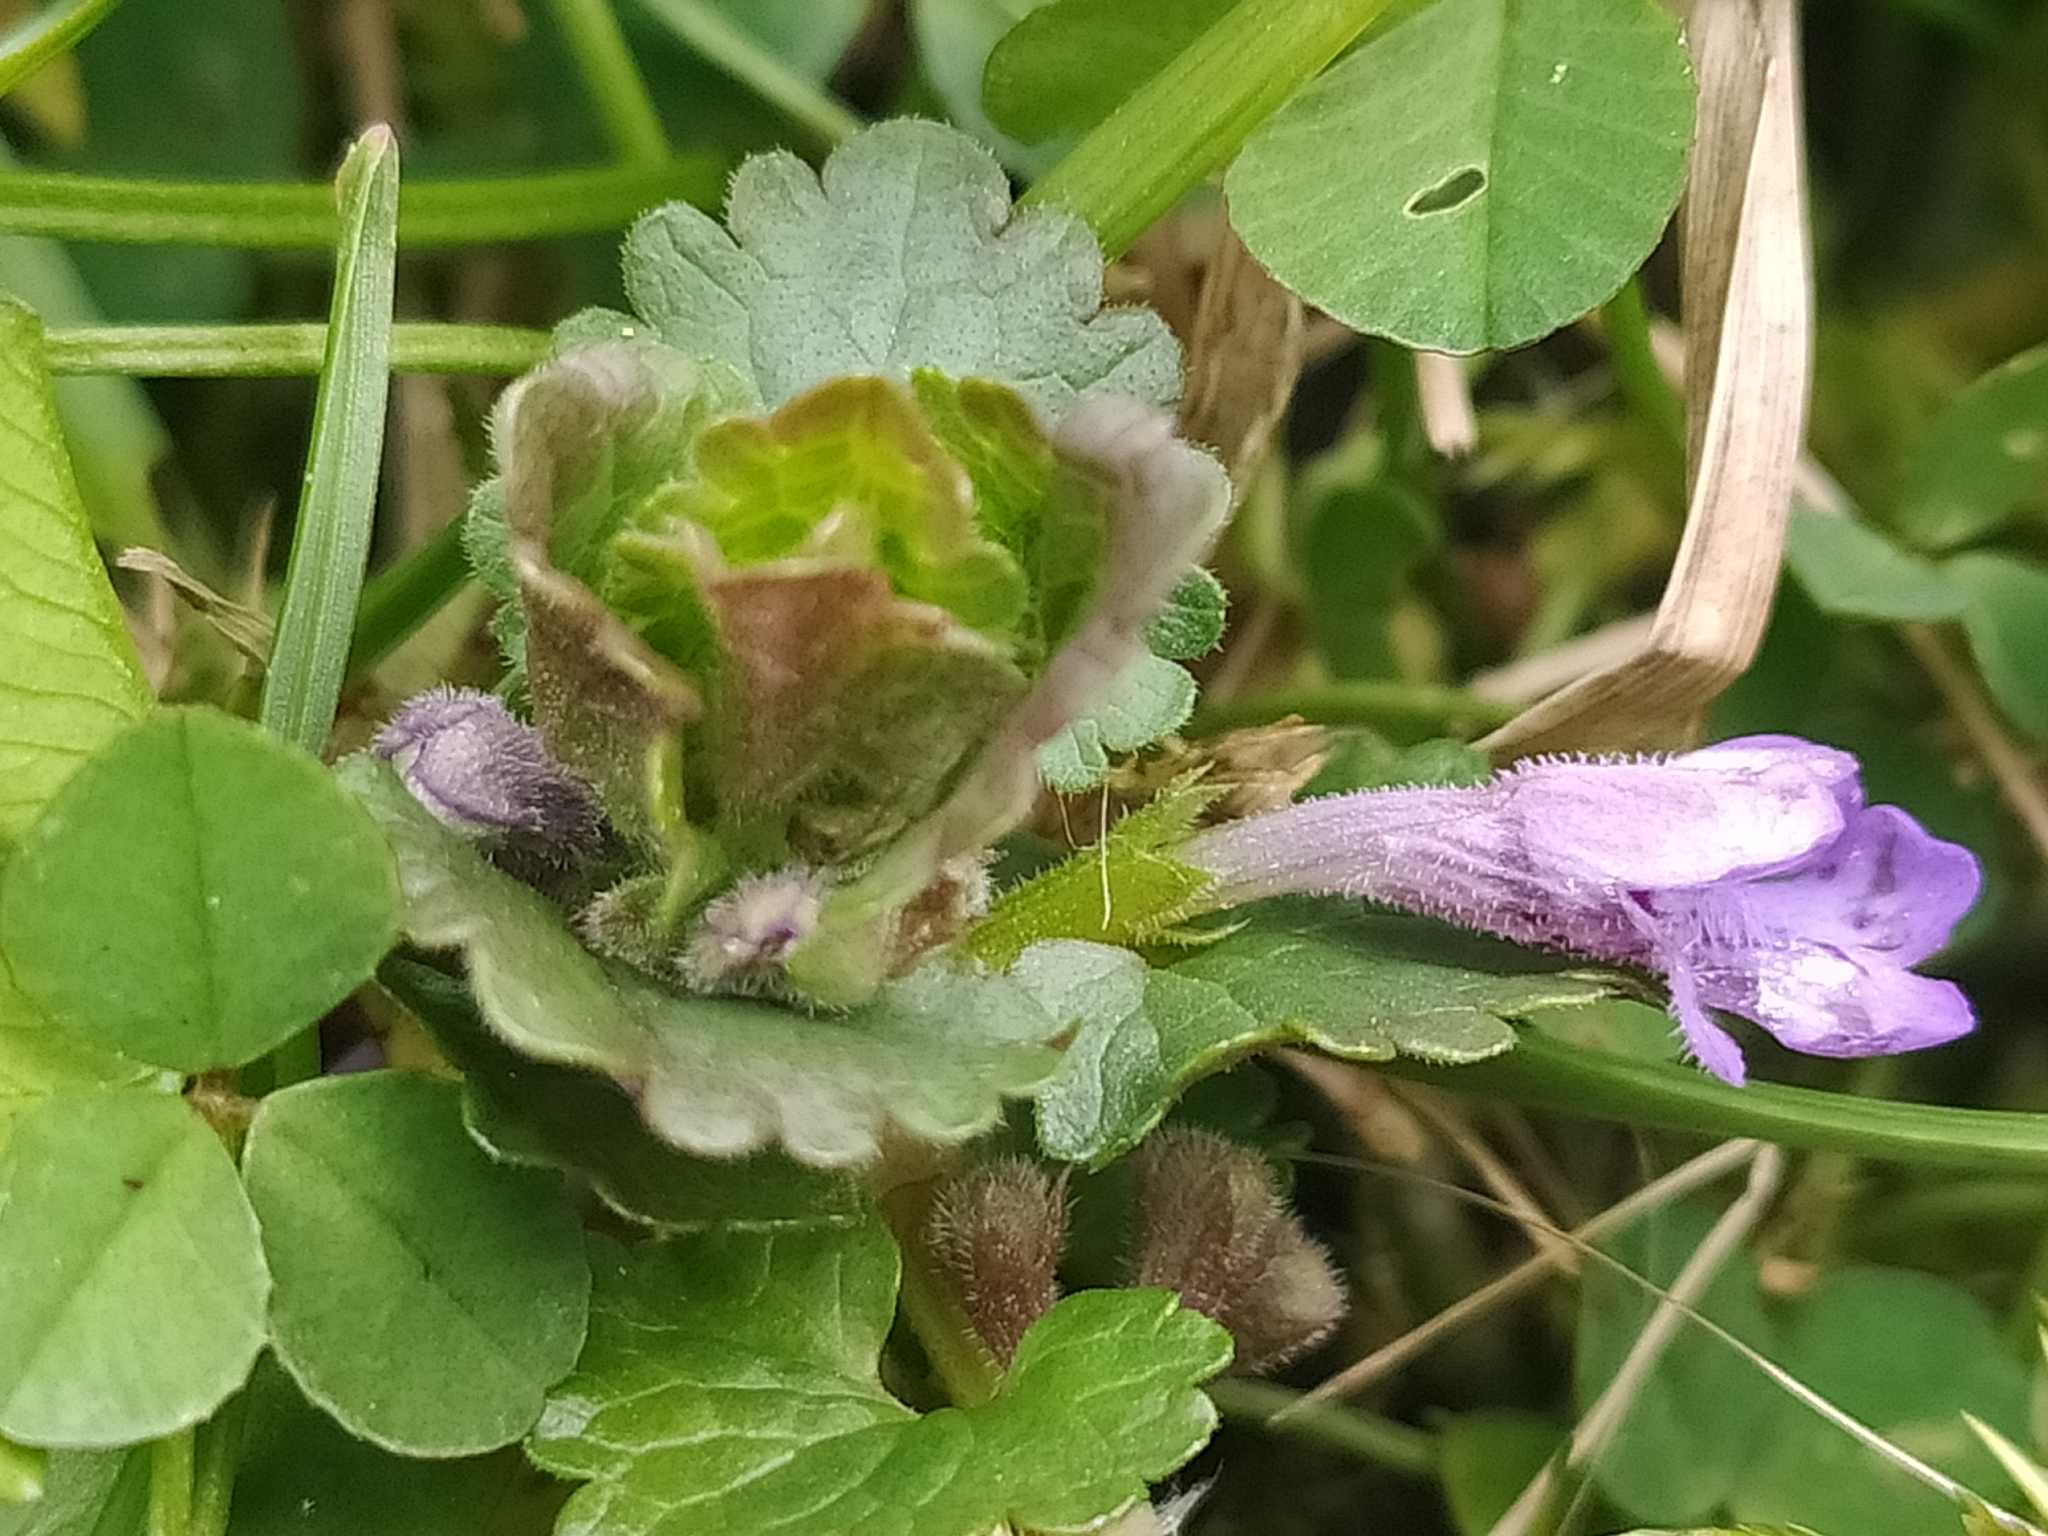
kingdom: Plantae
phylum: Tracheophyta
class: Magnoliopsida
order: Lamiales
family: Lamiaceae
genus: Glechoma
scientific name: Glechoma hederacea
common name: Ground ivy
